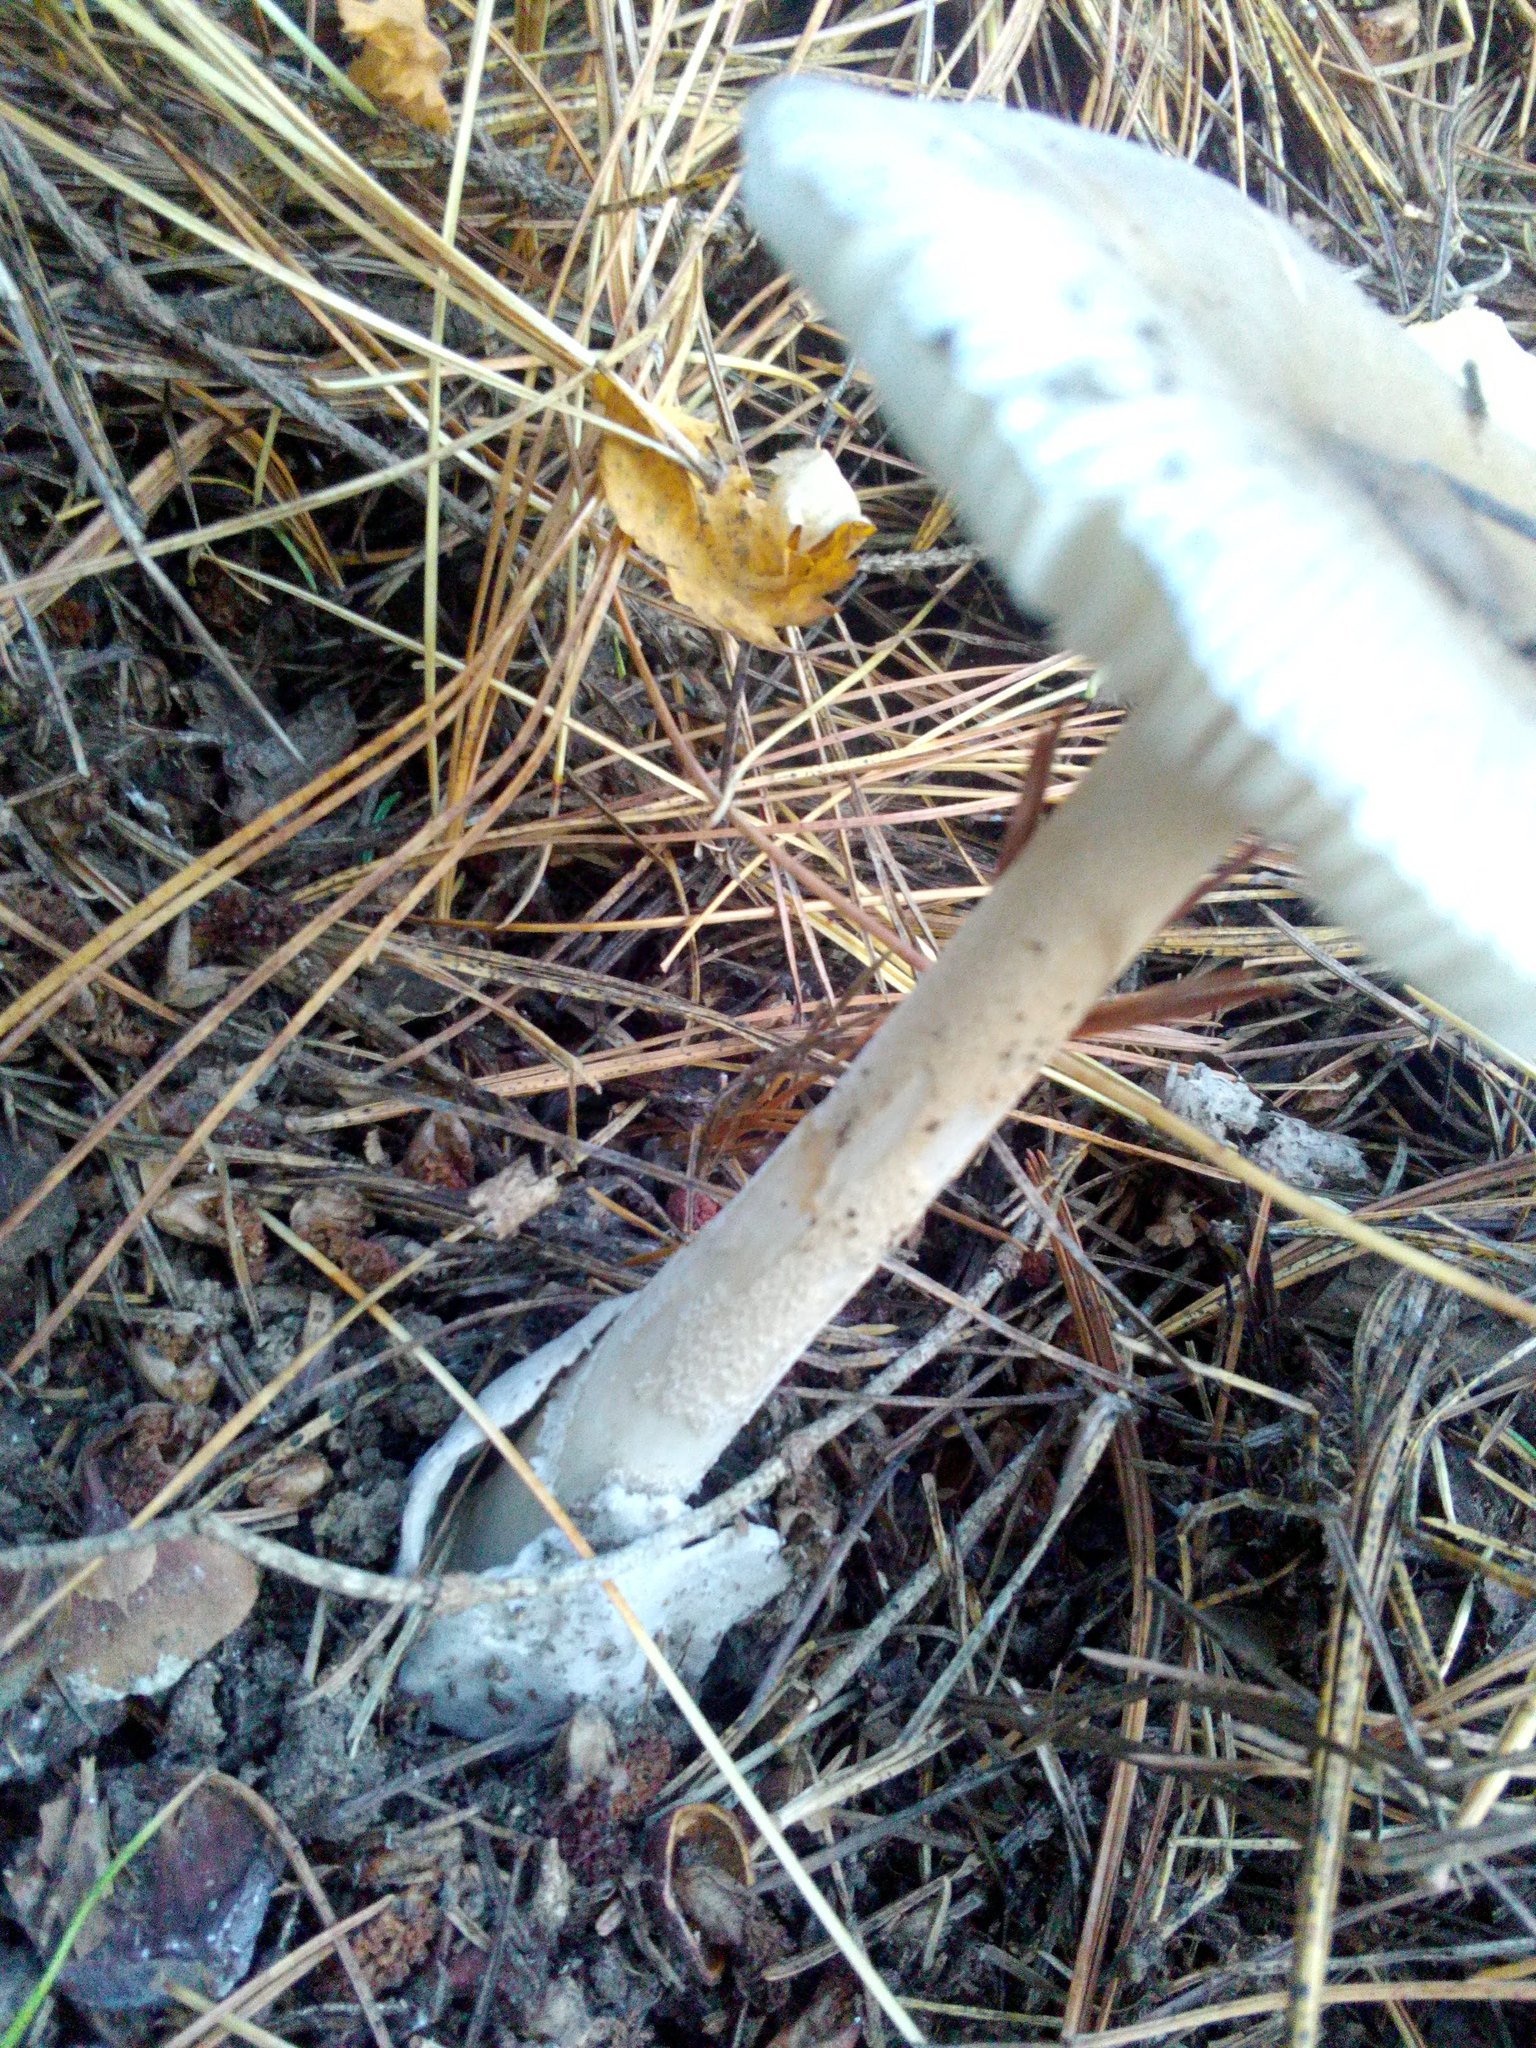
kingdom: Fungi
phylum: Basidiomycota
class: Agaricomycetes
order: Agaricales
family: Amanitaceae
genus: Amanita
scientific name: Amanita vaginata
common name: Grisette
